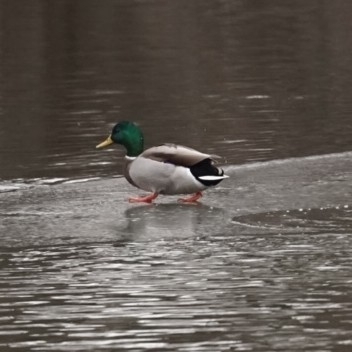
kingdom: Animalia
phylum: Chordata
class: Aves
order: Anseriformes
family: Anatidae
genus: Anas
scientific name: Anas platyrhynchos
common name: Mallard
